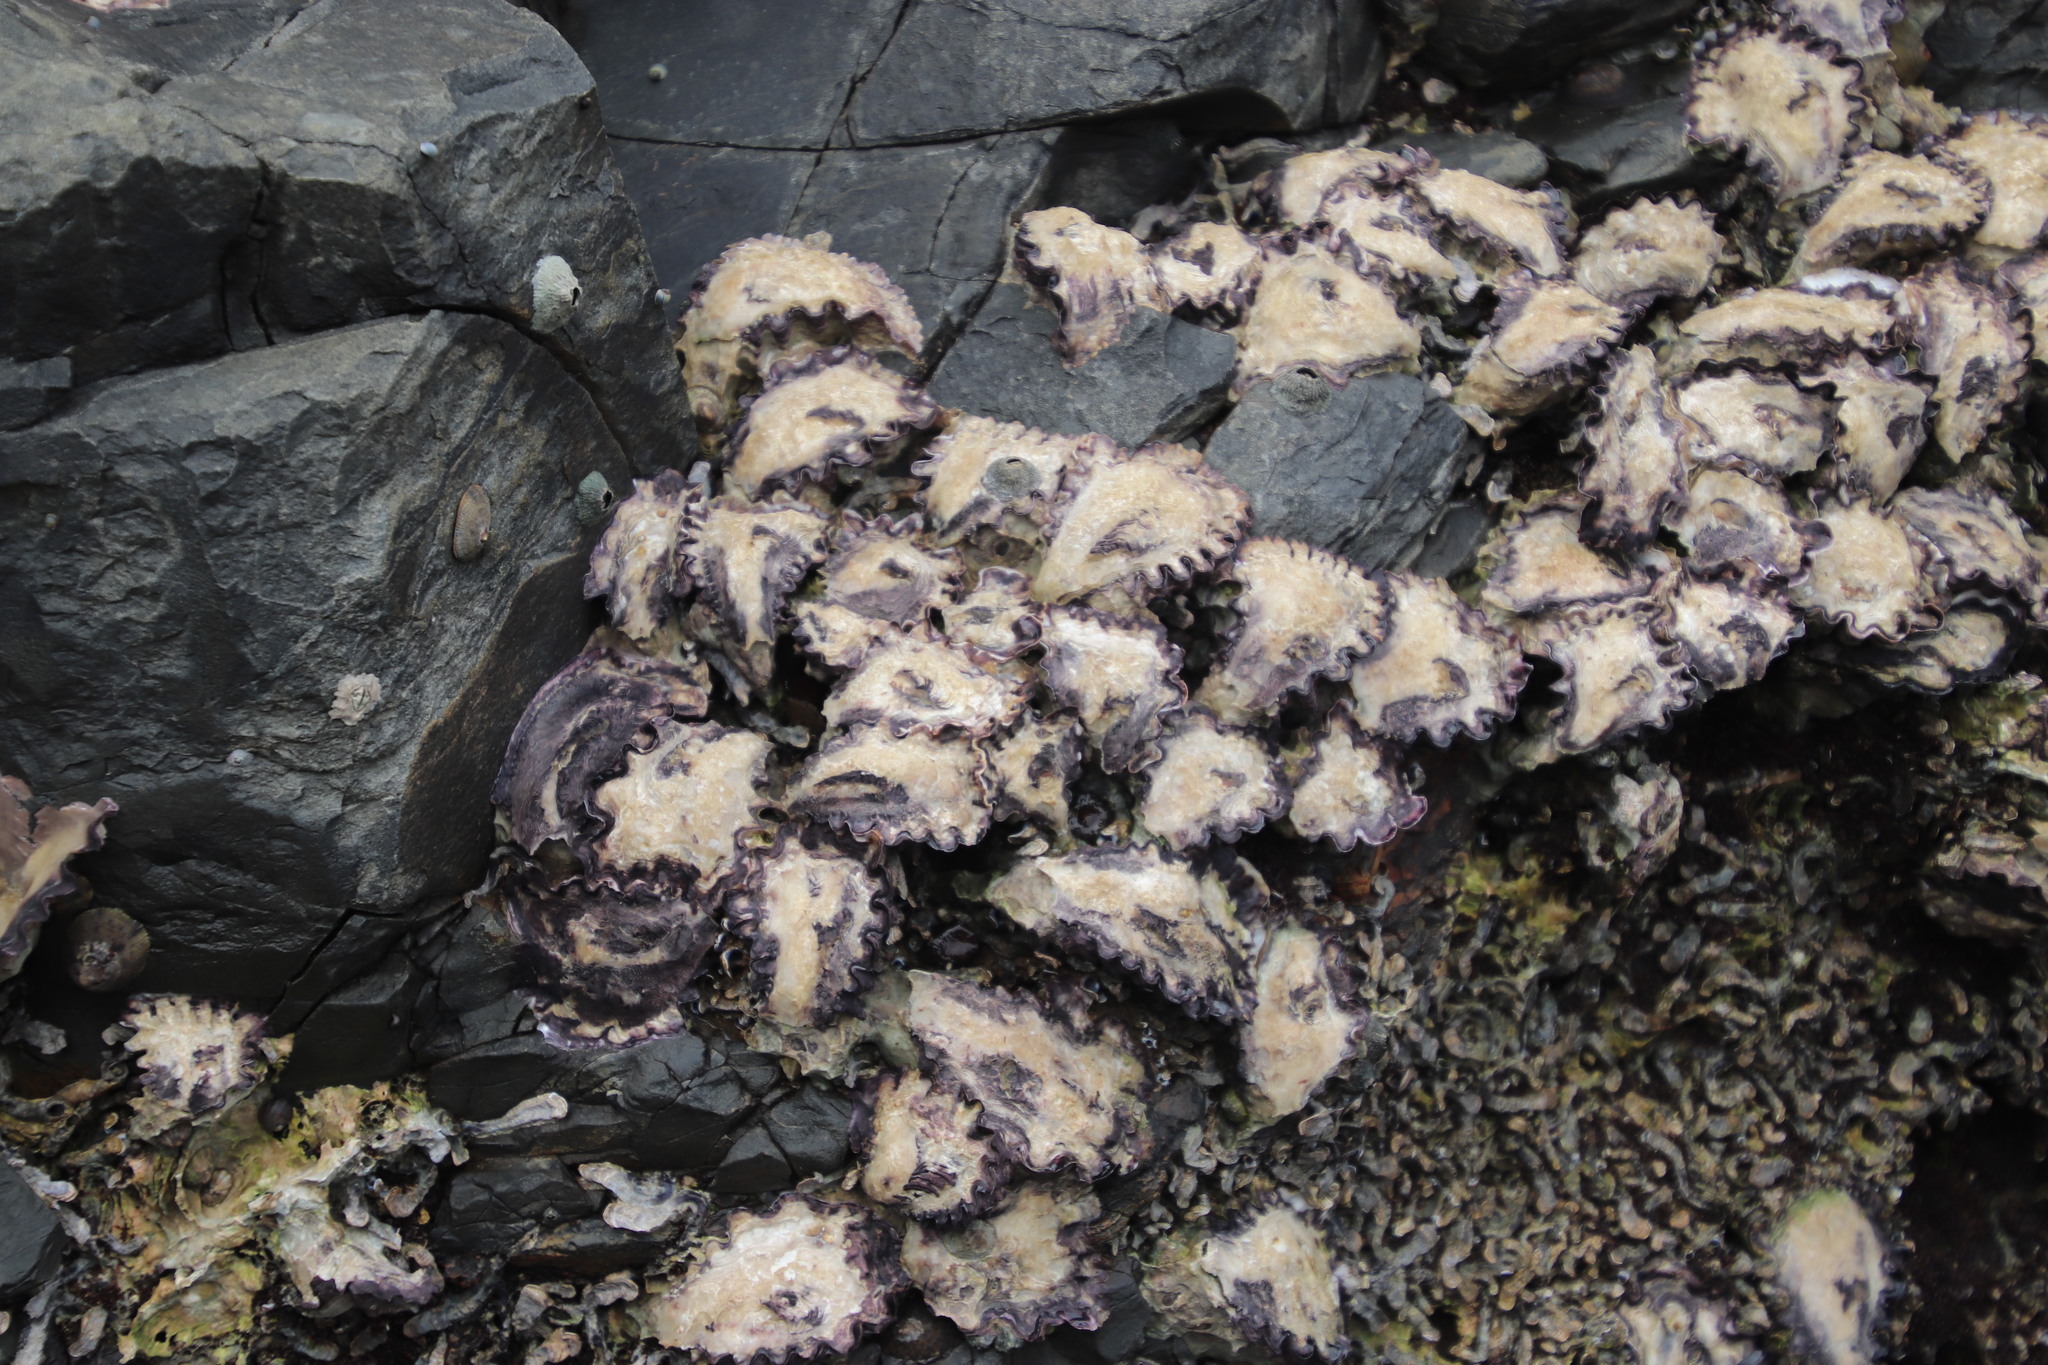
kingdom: Animalia
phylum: Mollusca
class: Bivalvia
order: Ostreida
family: Ostreidae
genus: Saccostrea
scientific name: Saccostrea cuccullata
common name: Natal rock oyster
